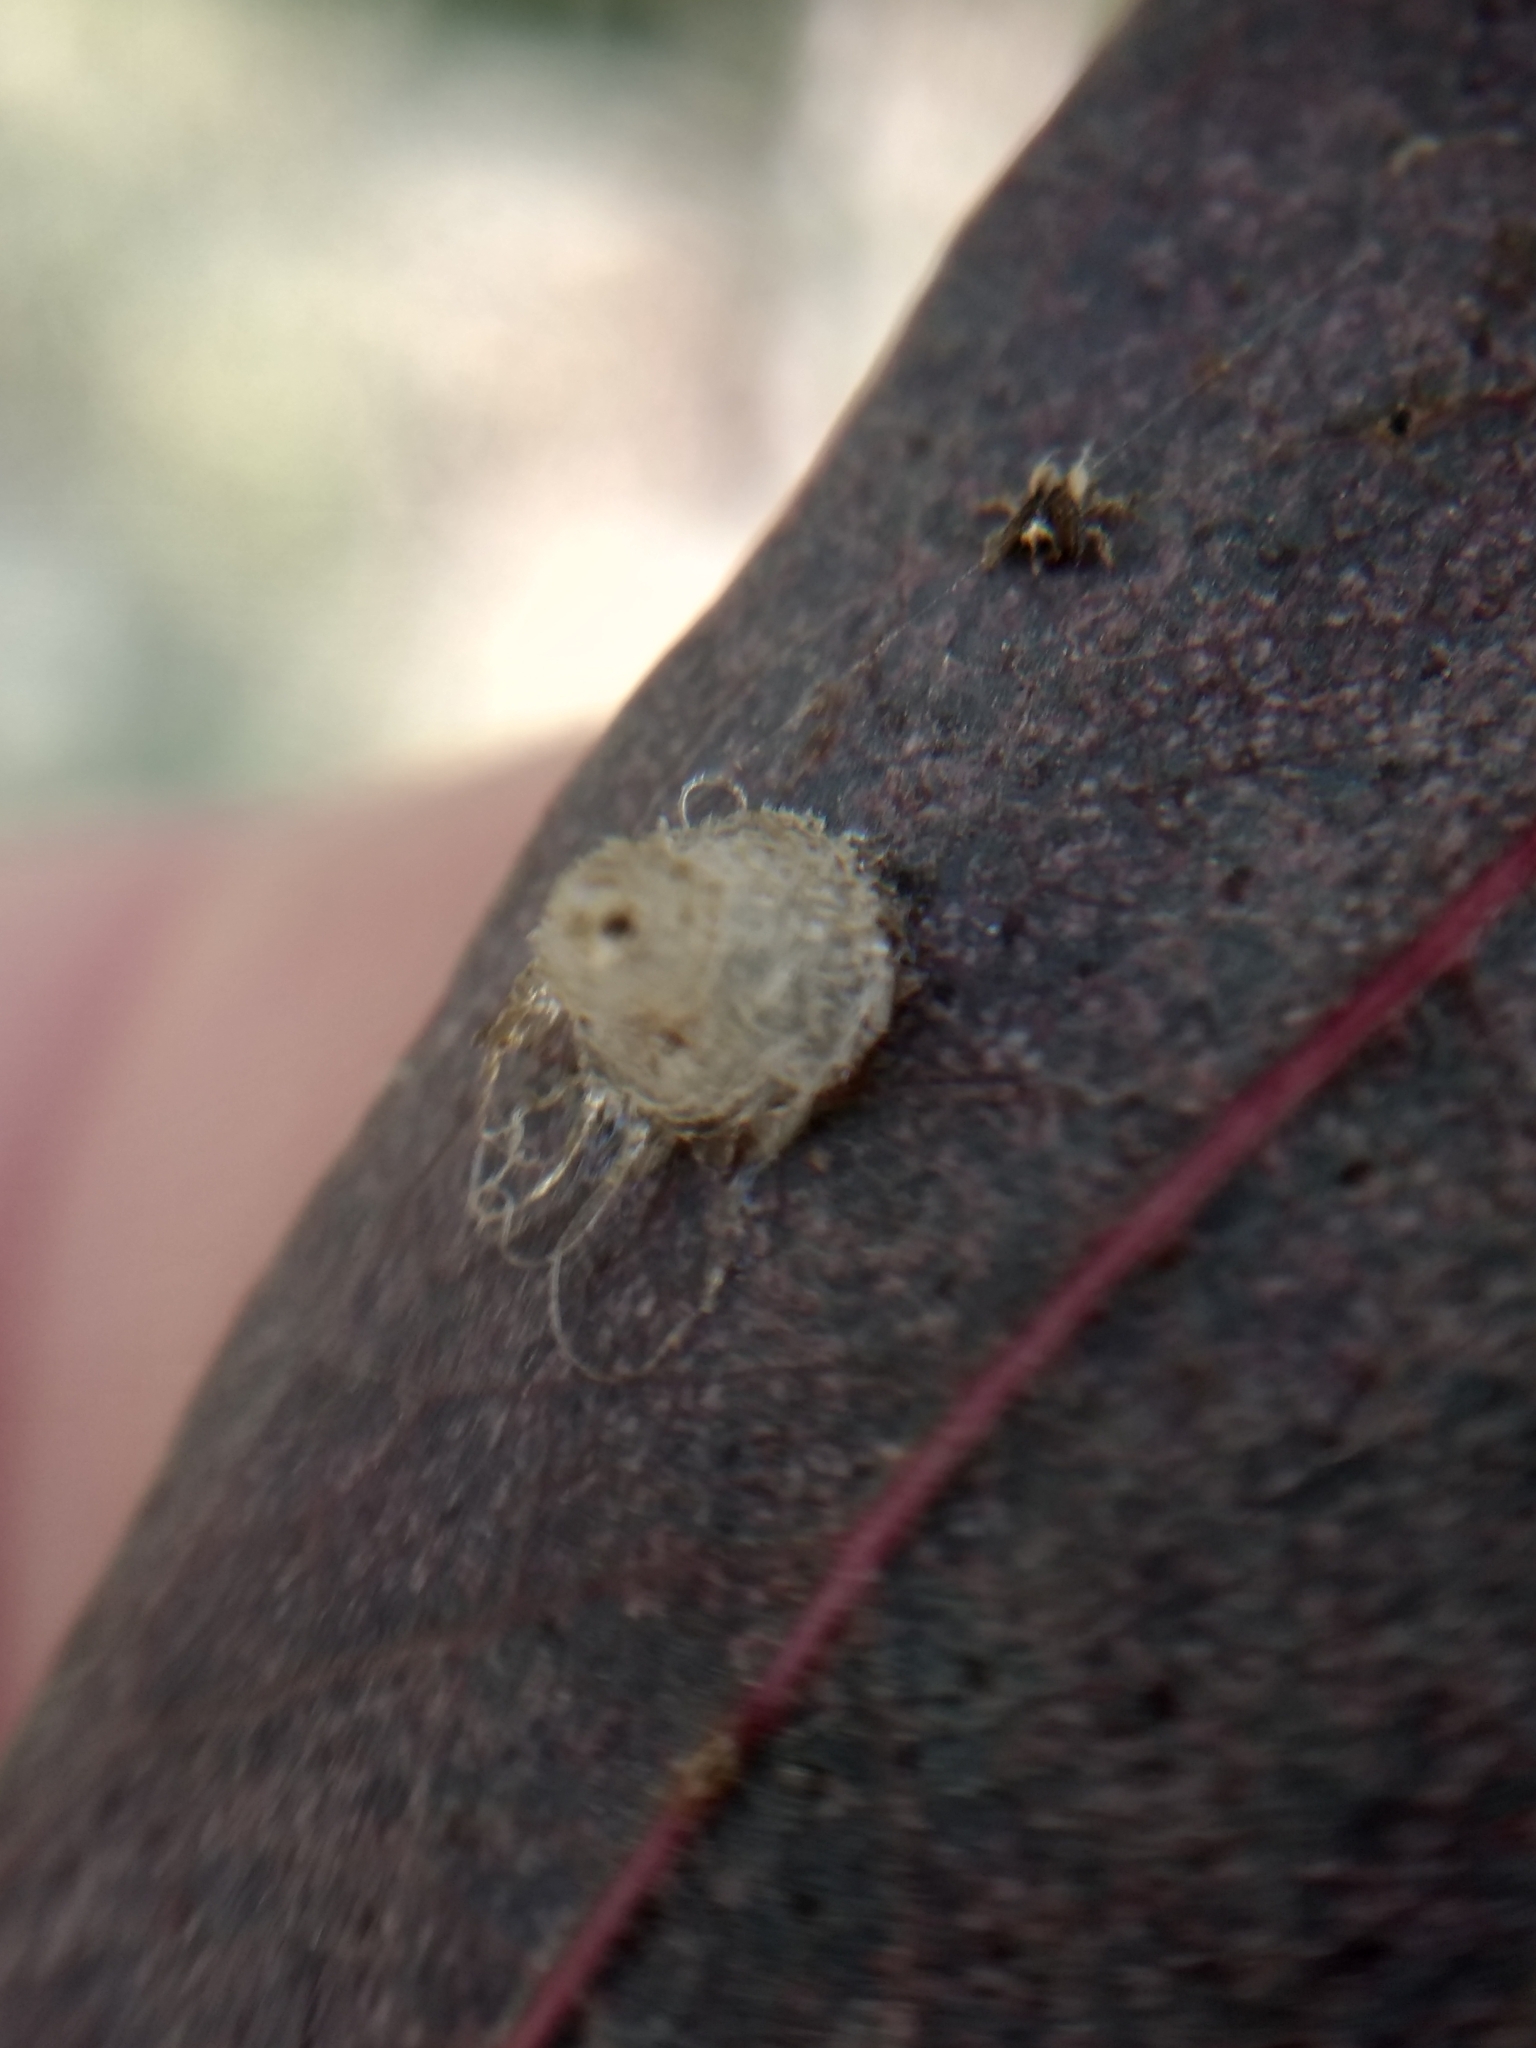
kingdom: Animalia
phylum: Arthropoda
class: Insecta
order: Hemiptera
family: Aphalaridae
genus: Glycaspis
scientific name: Glycaspis brimblecombei
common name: Red gum lerp psyllid
